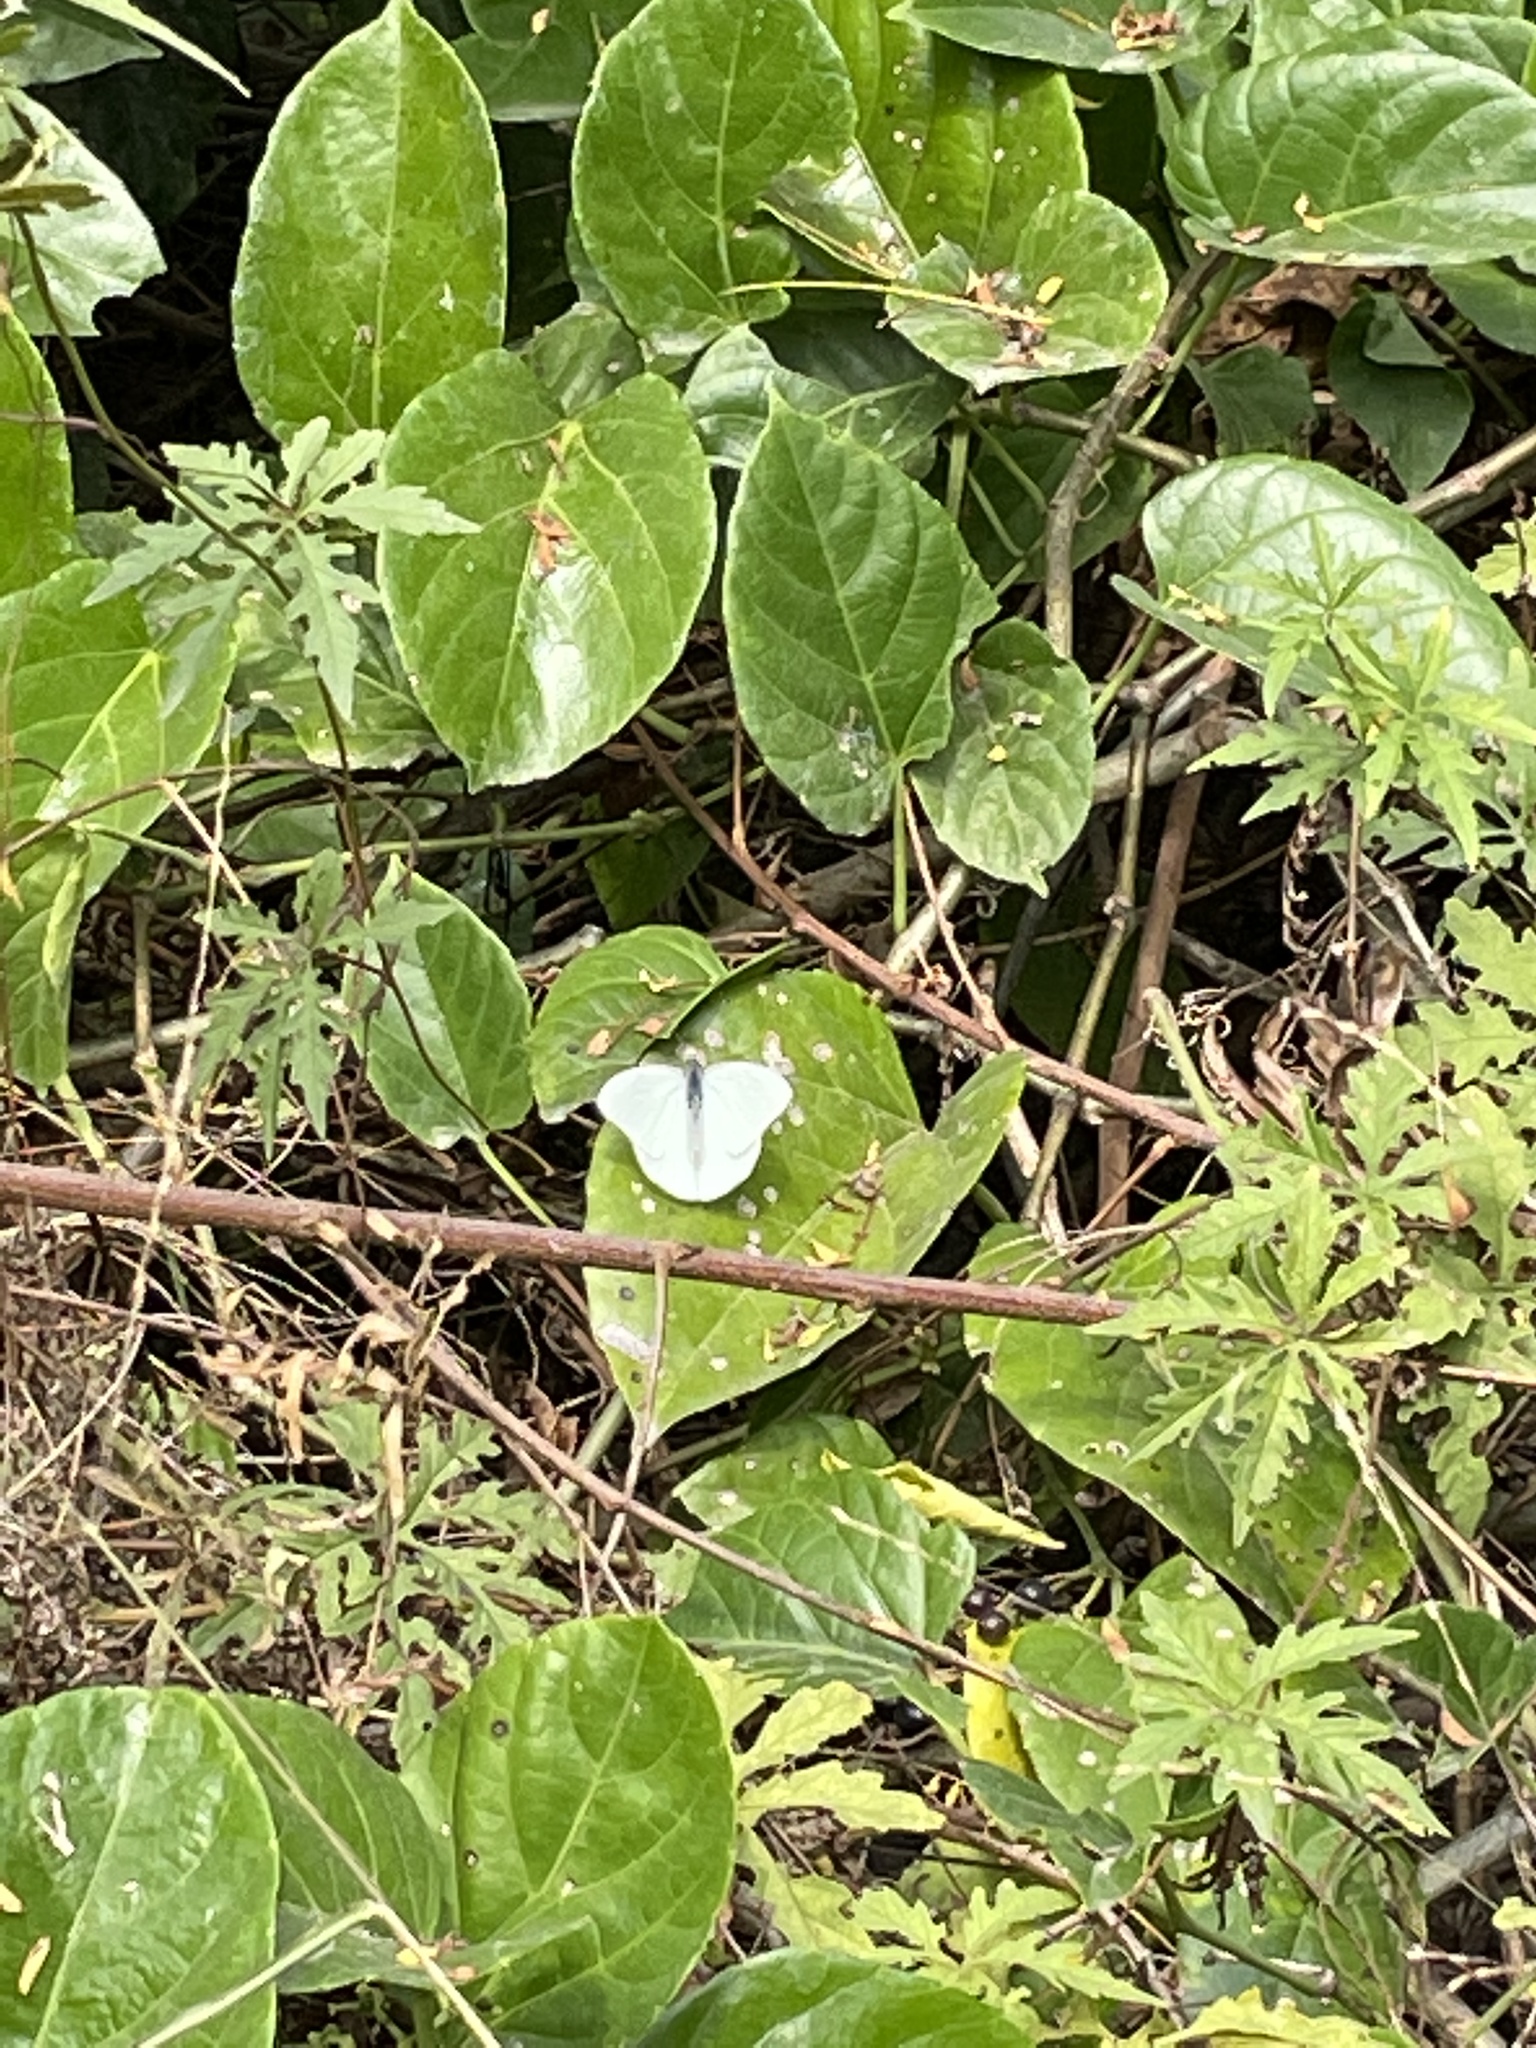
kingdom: Animalia
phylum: Arthropoda
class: Insecta
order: Lepidoptera
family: Pieridae
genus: Glutophrissa
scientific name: Glutophrissa drusilla
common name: Florida white
